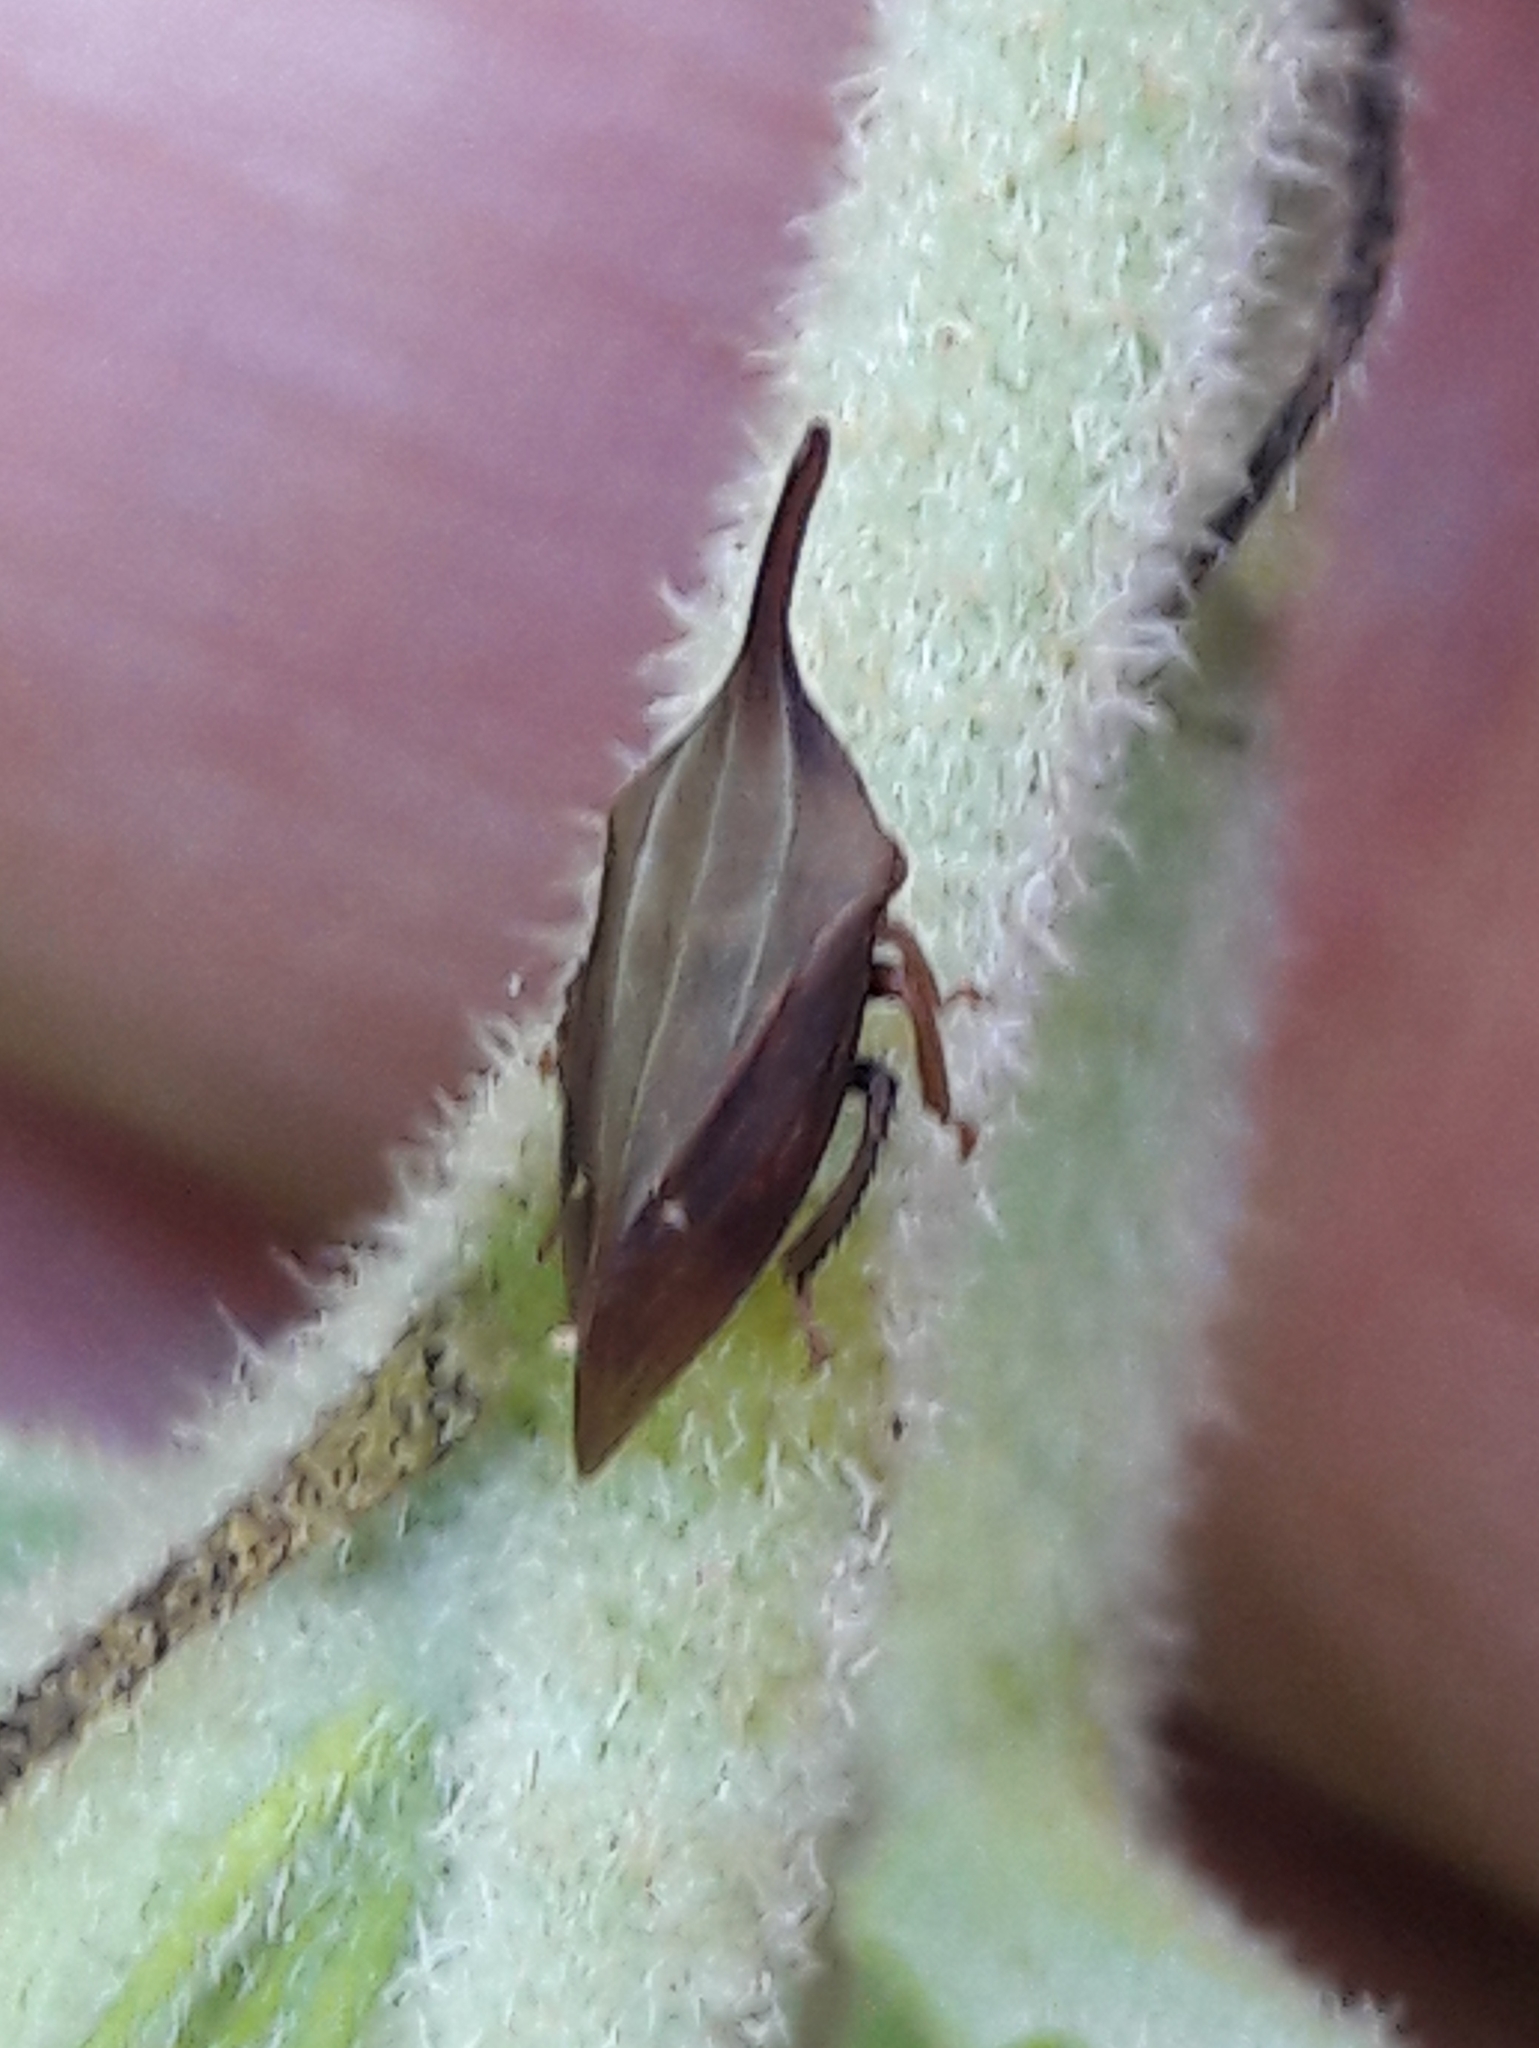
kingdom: Animalia
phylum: Arthropoda
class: Insecta
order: Hemiptera
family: Membracidae
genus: Enchenopa
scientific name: Enchenopa gracilis
